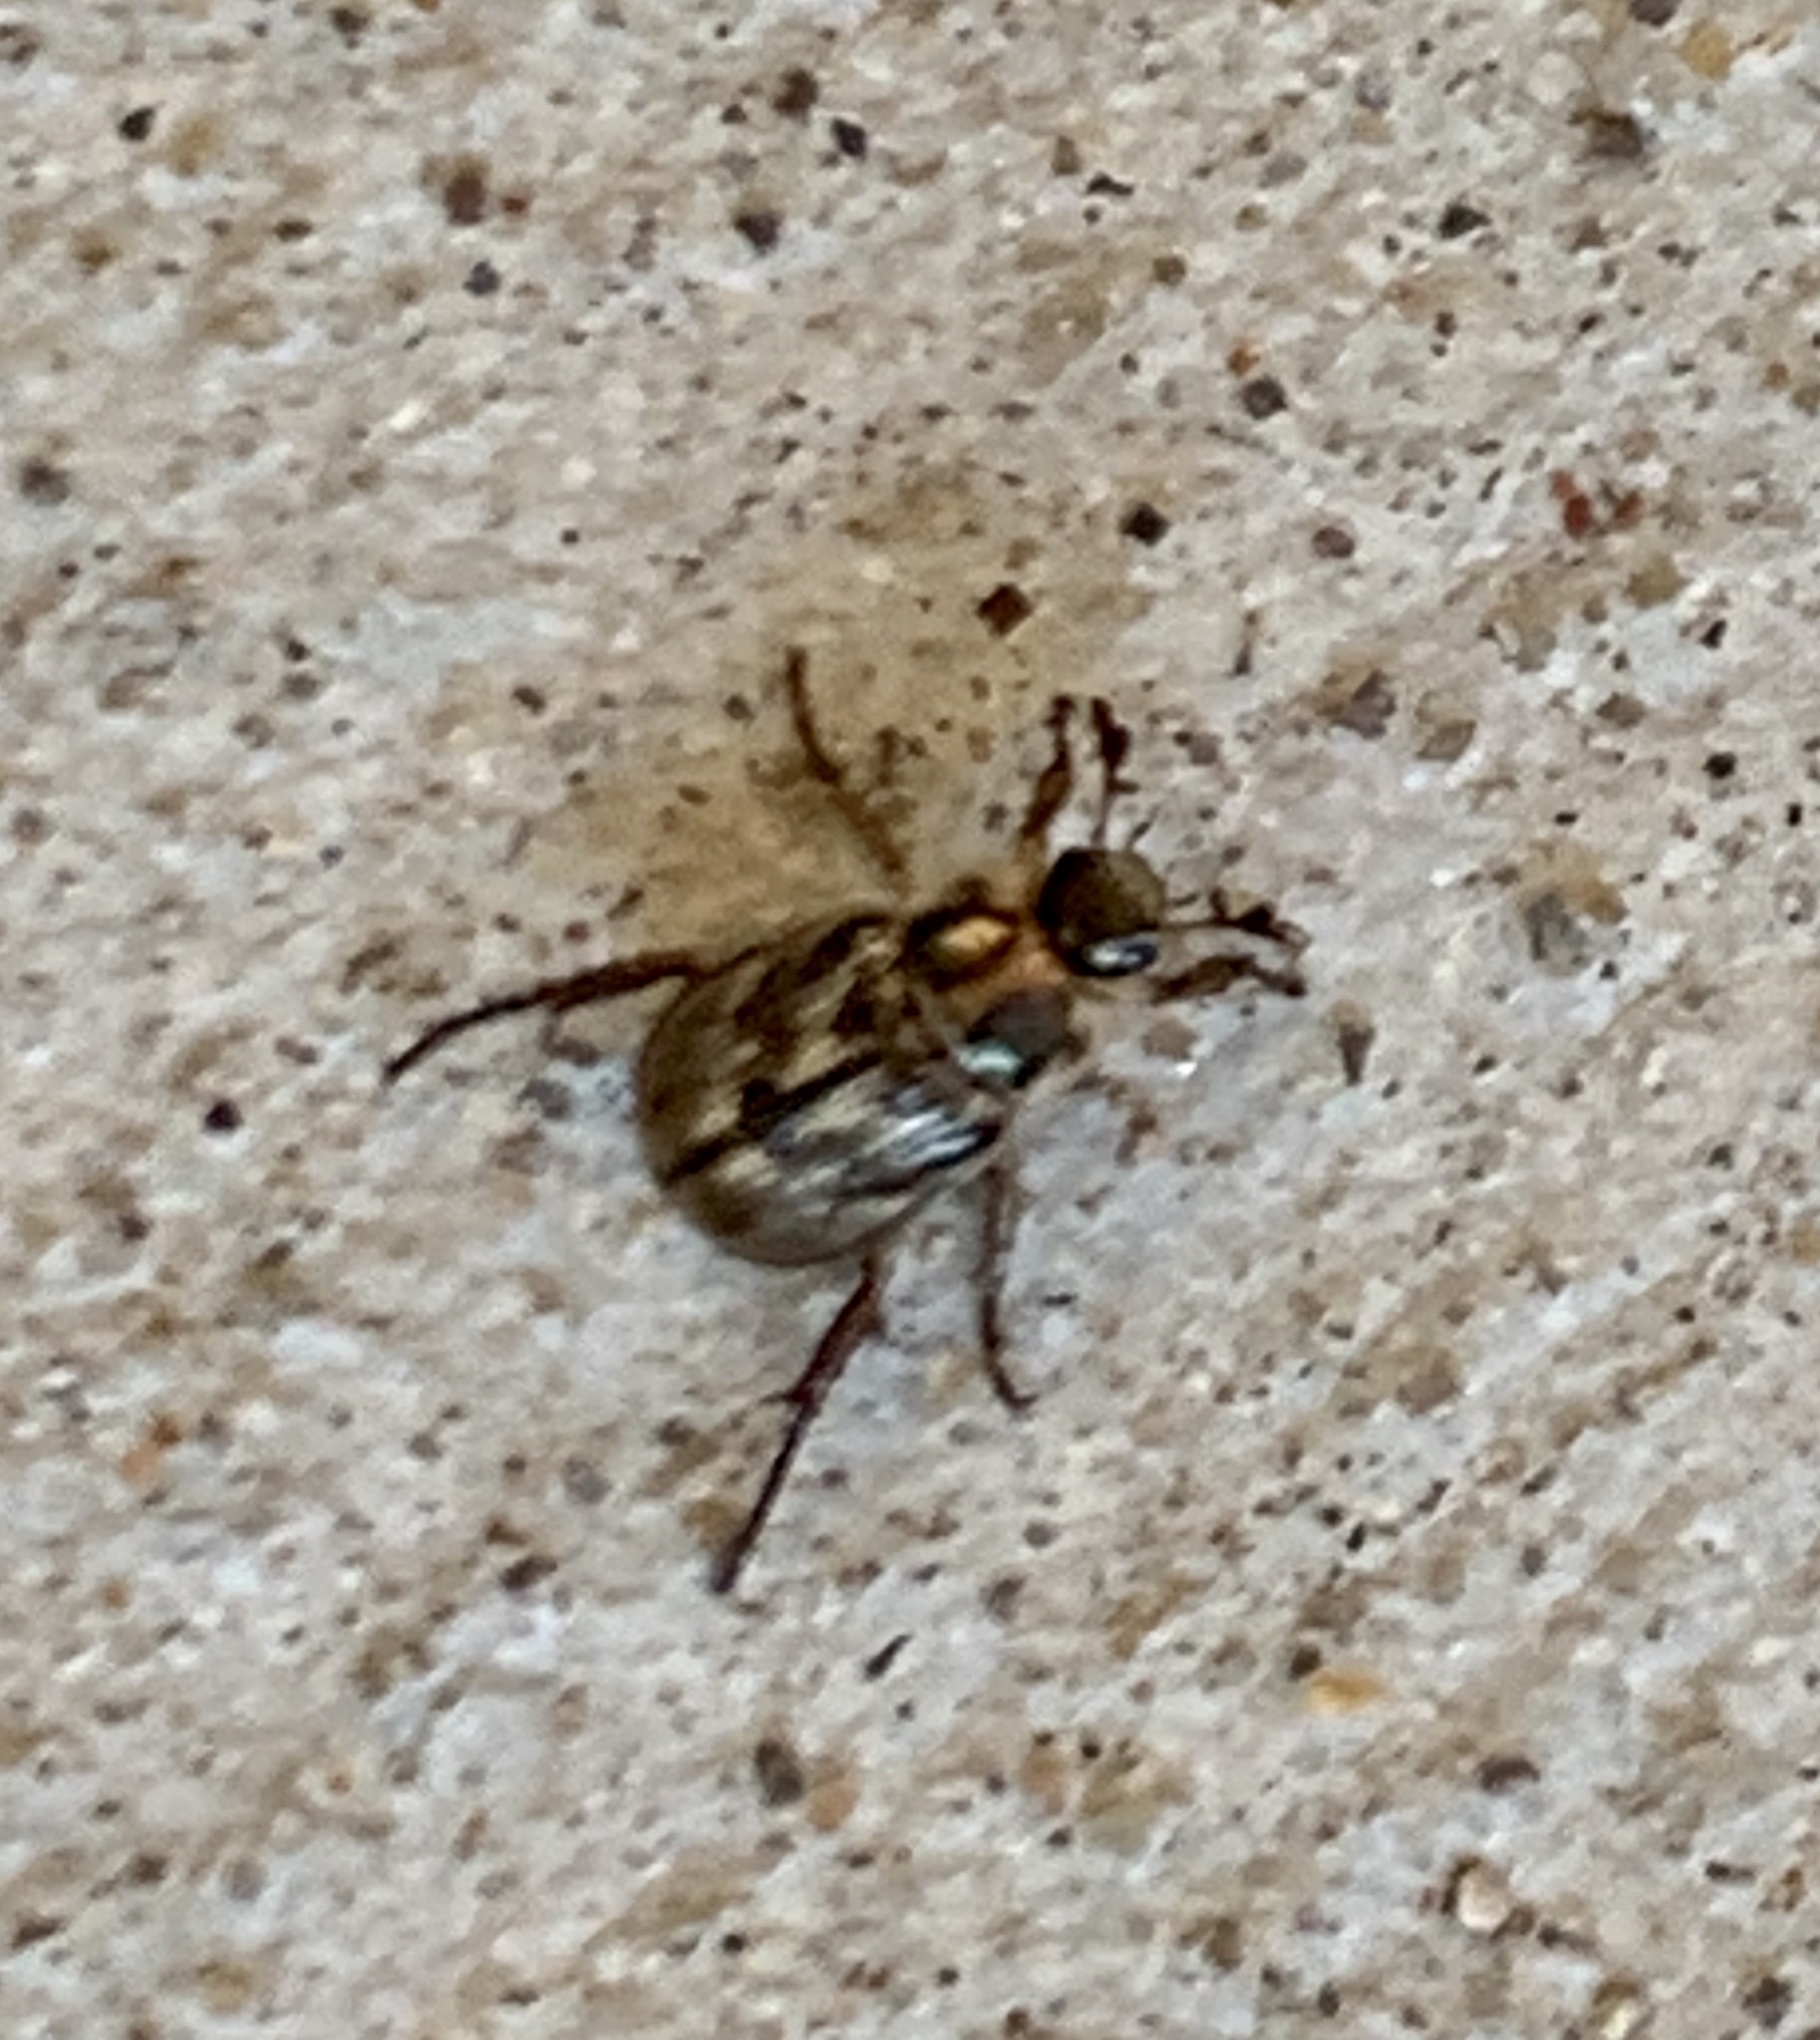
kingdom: Animalia
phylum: Arthropoda
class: Insecta
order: Coleoptera
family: Scarabaeidae
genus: Exomala
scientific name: Exomala orientalis
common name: Oriental beetle
